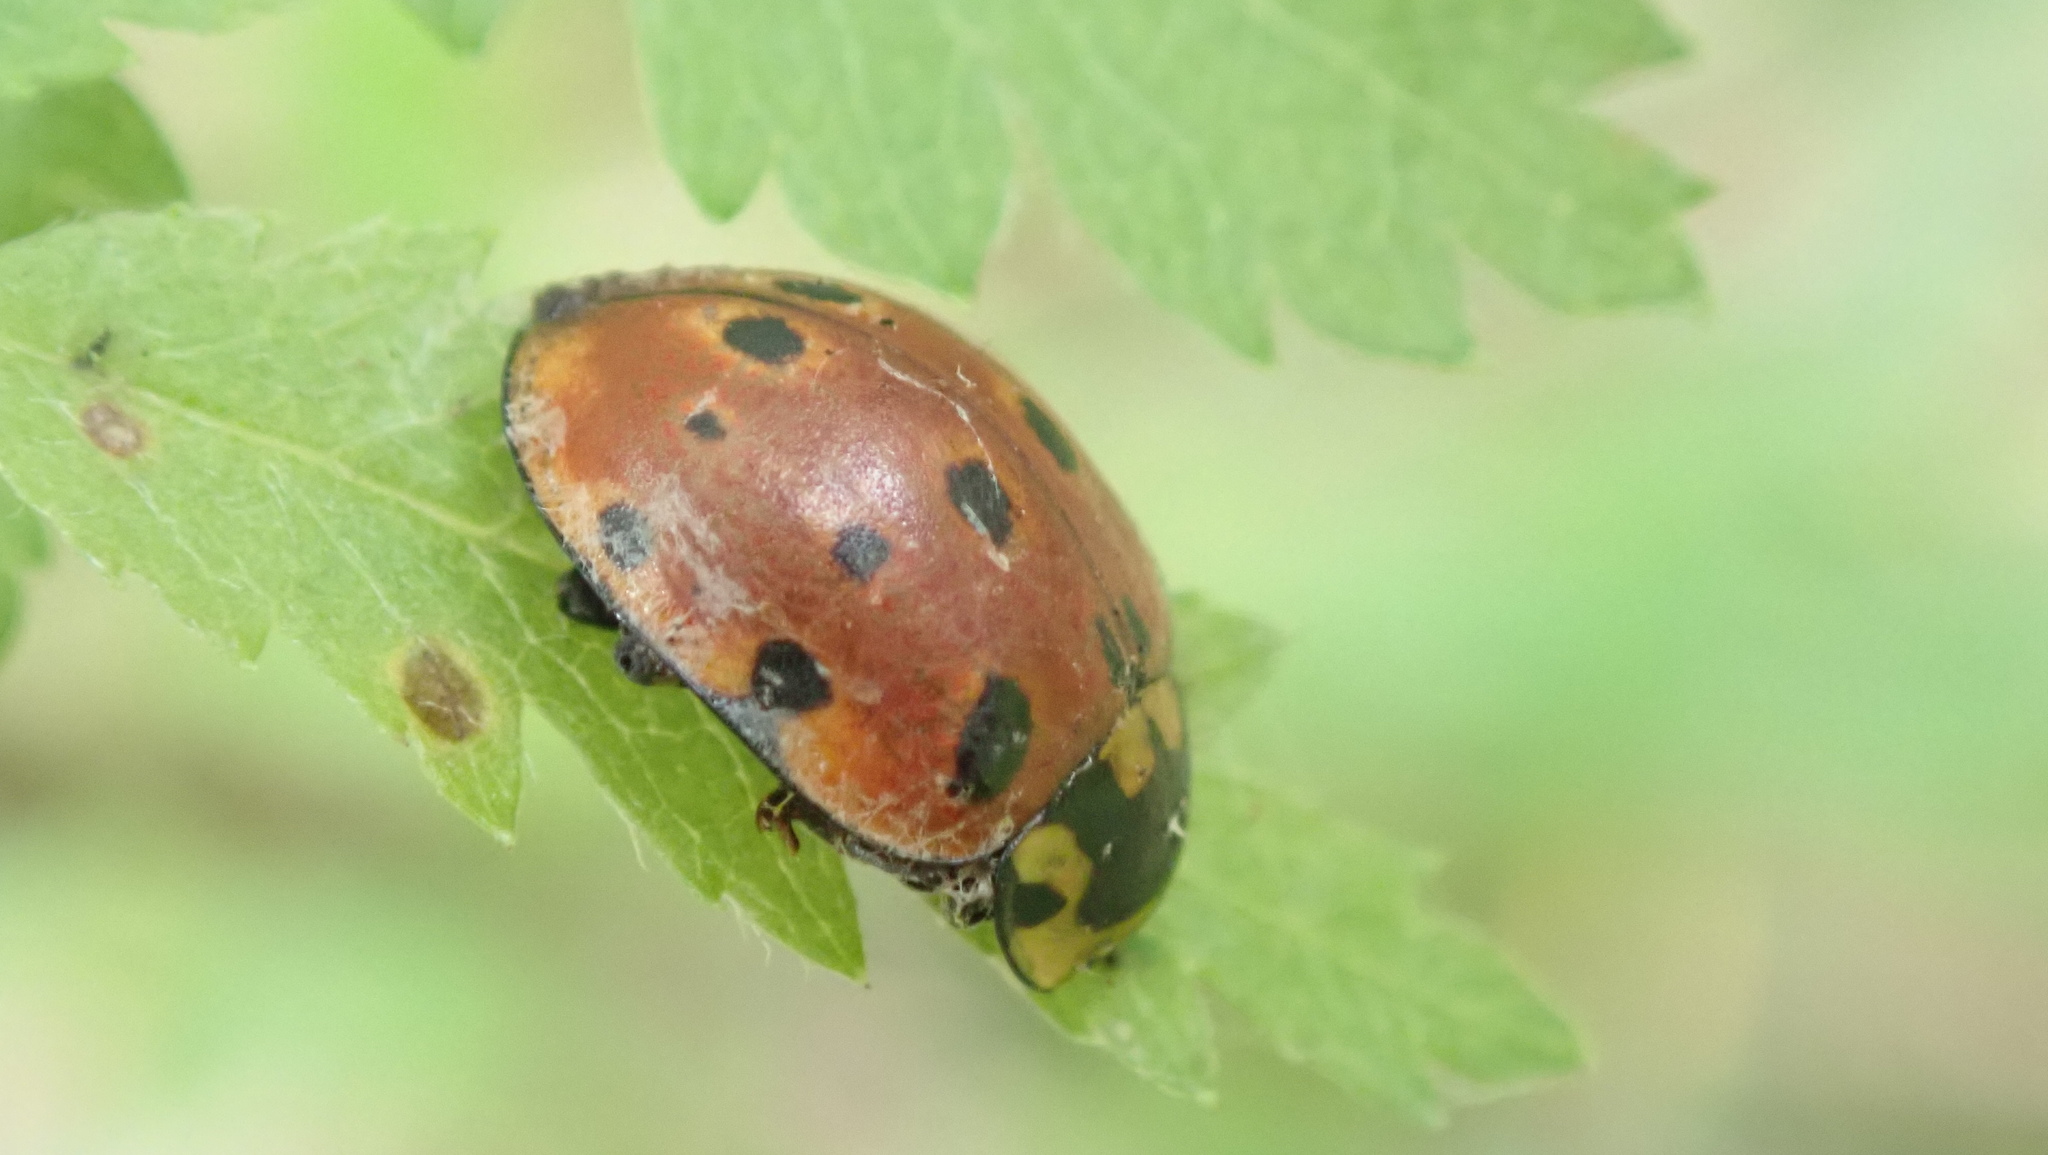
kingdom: Animalia
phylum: Arthropoda
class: Insecta
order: Coleoptera
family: Coccinellidae
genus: Anatis
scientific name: Anatis ocellata
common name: Eyed ladybird
